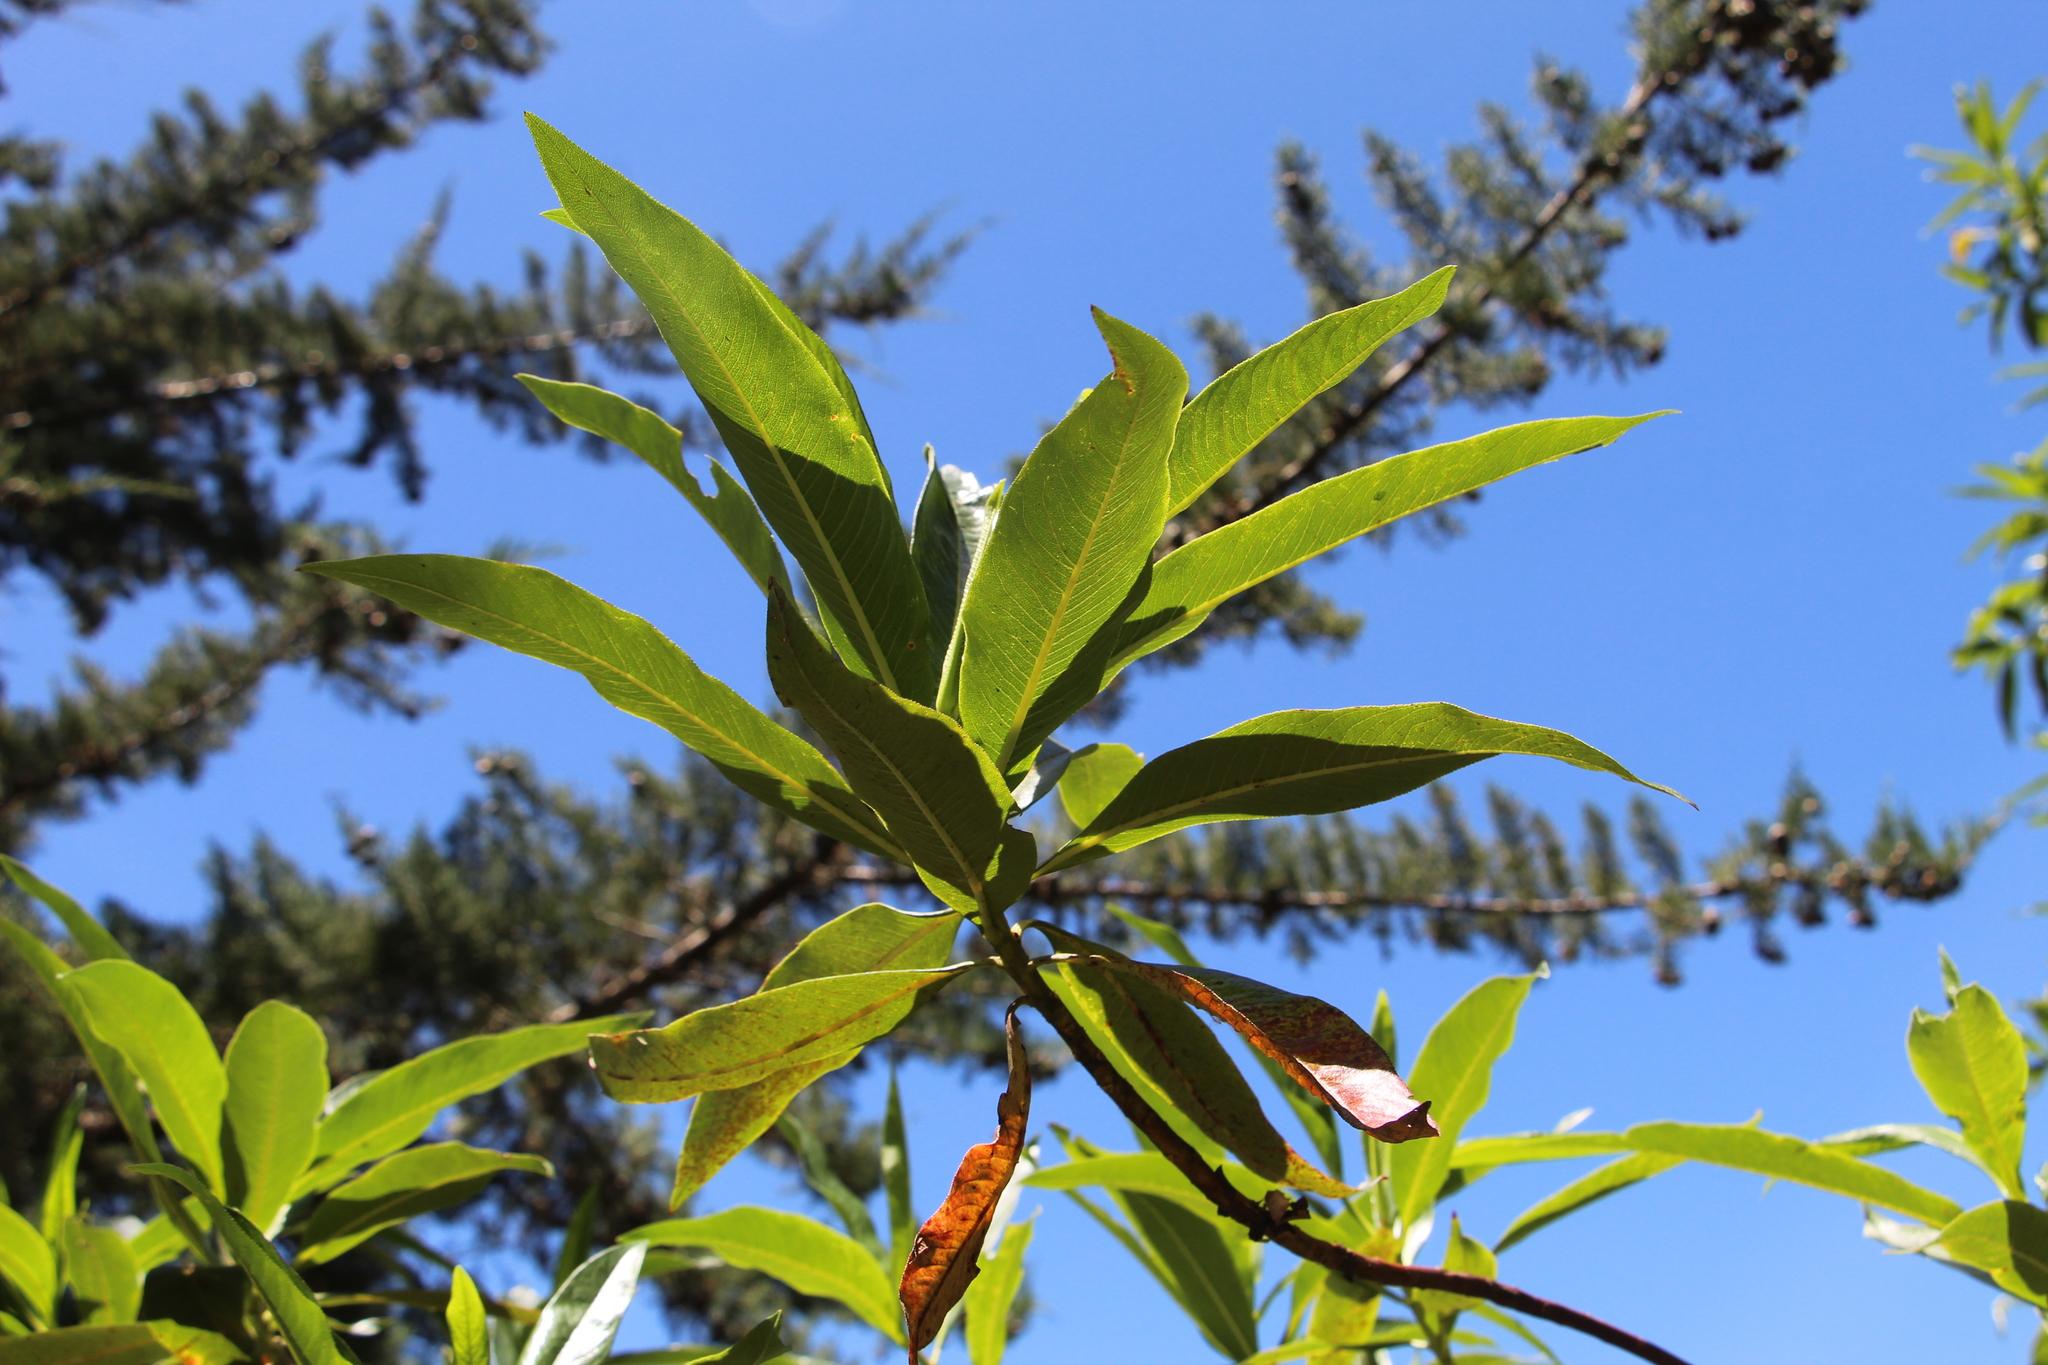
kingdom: Plantae
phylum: Tracheophyta
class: Magnoliopsida
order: Escalloniales
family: Escalloniaceae
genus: Escallonia
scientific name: Escallonia pendula
